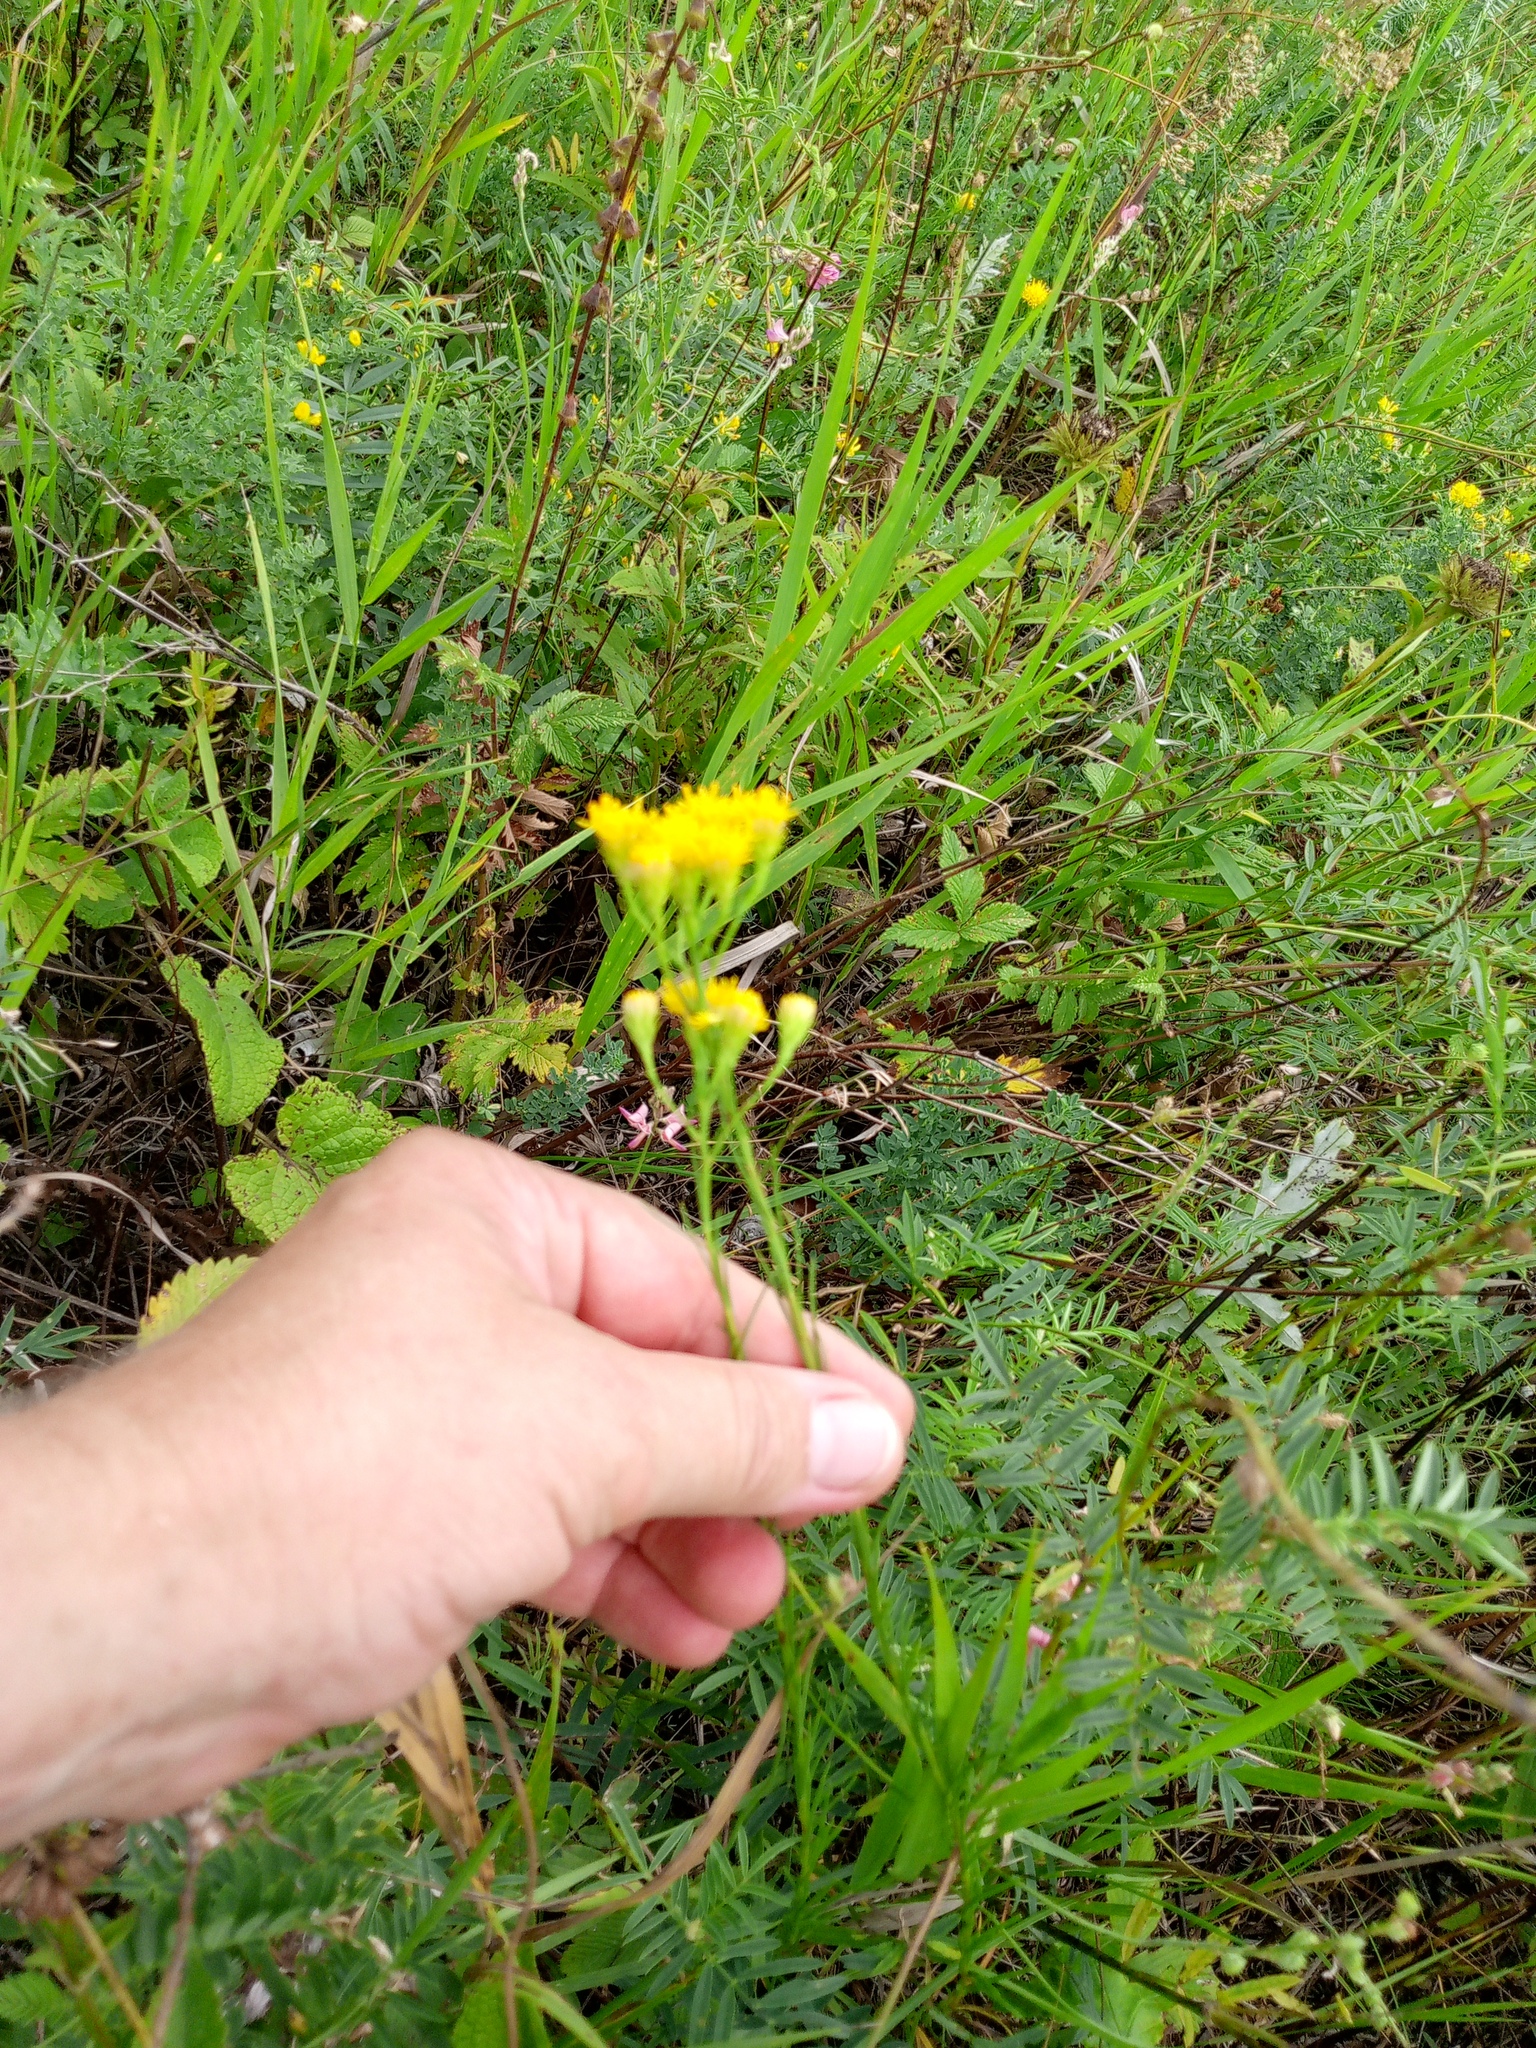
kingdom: Plantae
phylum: Tracheophyta
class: Magnoliopsida
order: Asterales
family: Asteraceae
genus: Galatella
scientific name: Galatella linosyris
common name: Goldilocks aster
